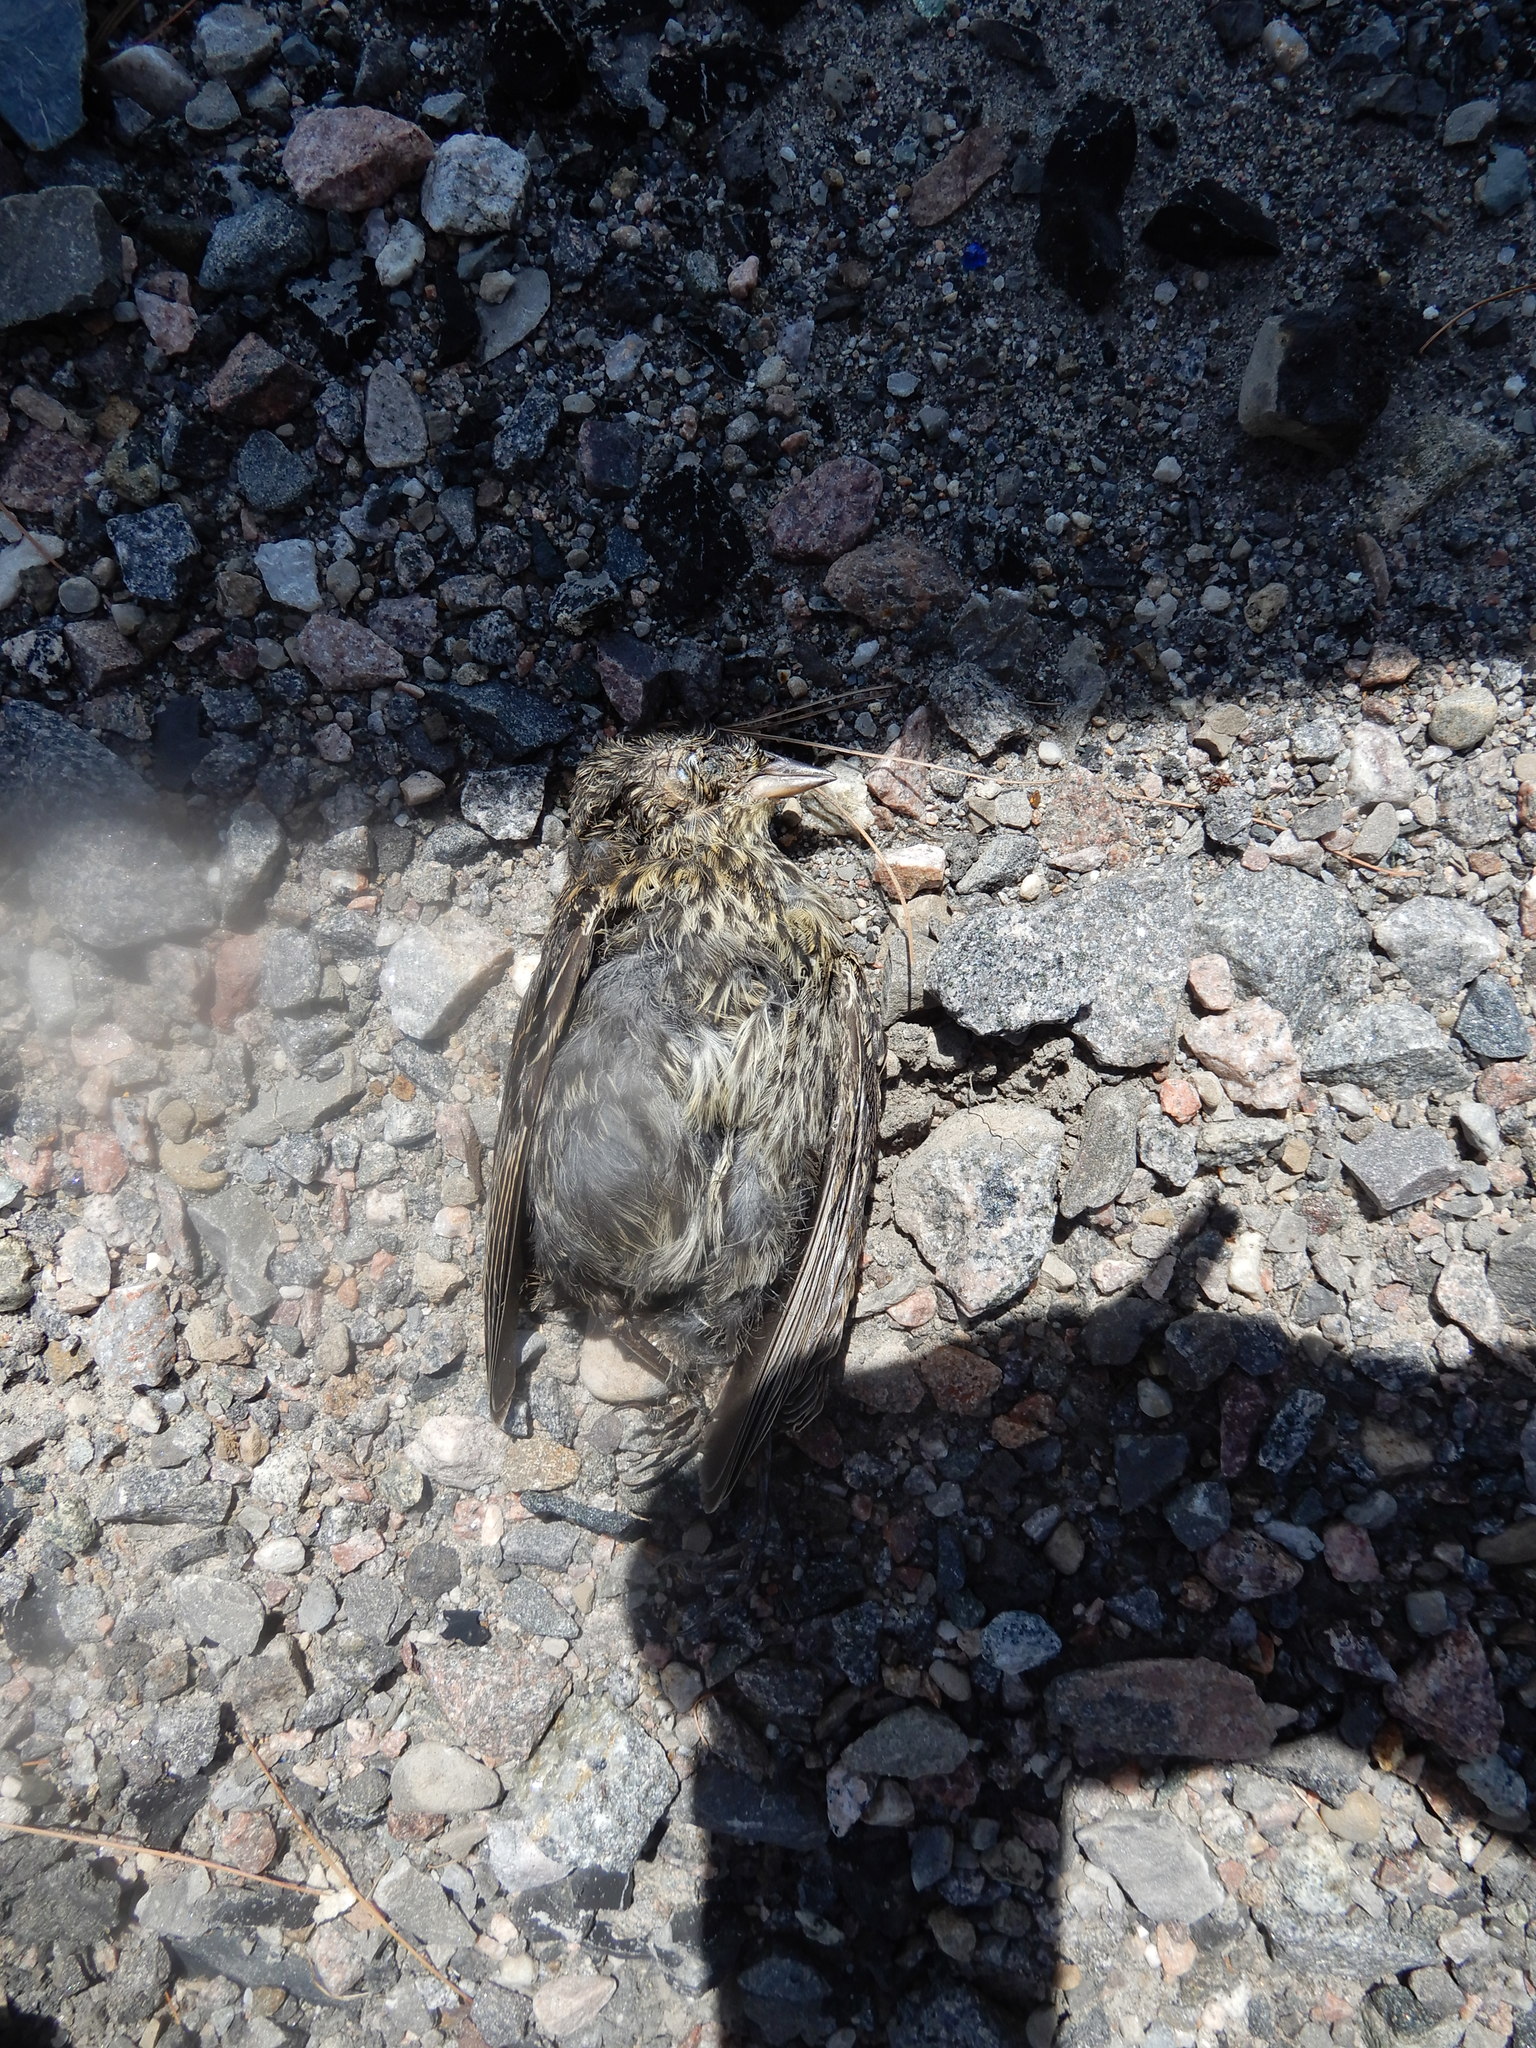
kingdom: Animalia
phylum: Chordata
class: Aves
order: Passeriformes
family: Icteridae
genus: Agelaius
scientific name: Agelaius phoeniceus
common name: Red-winged blackbird
